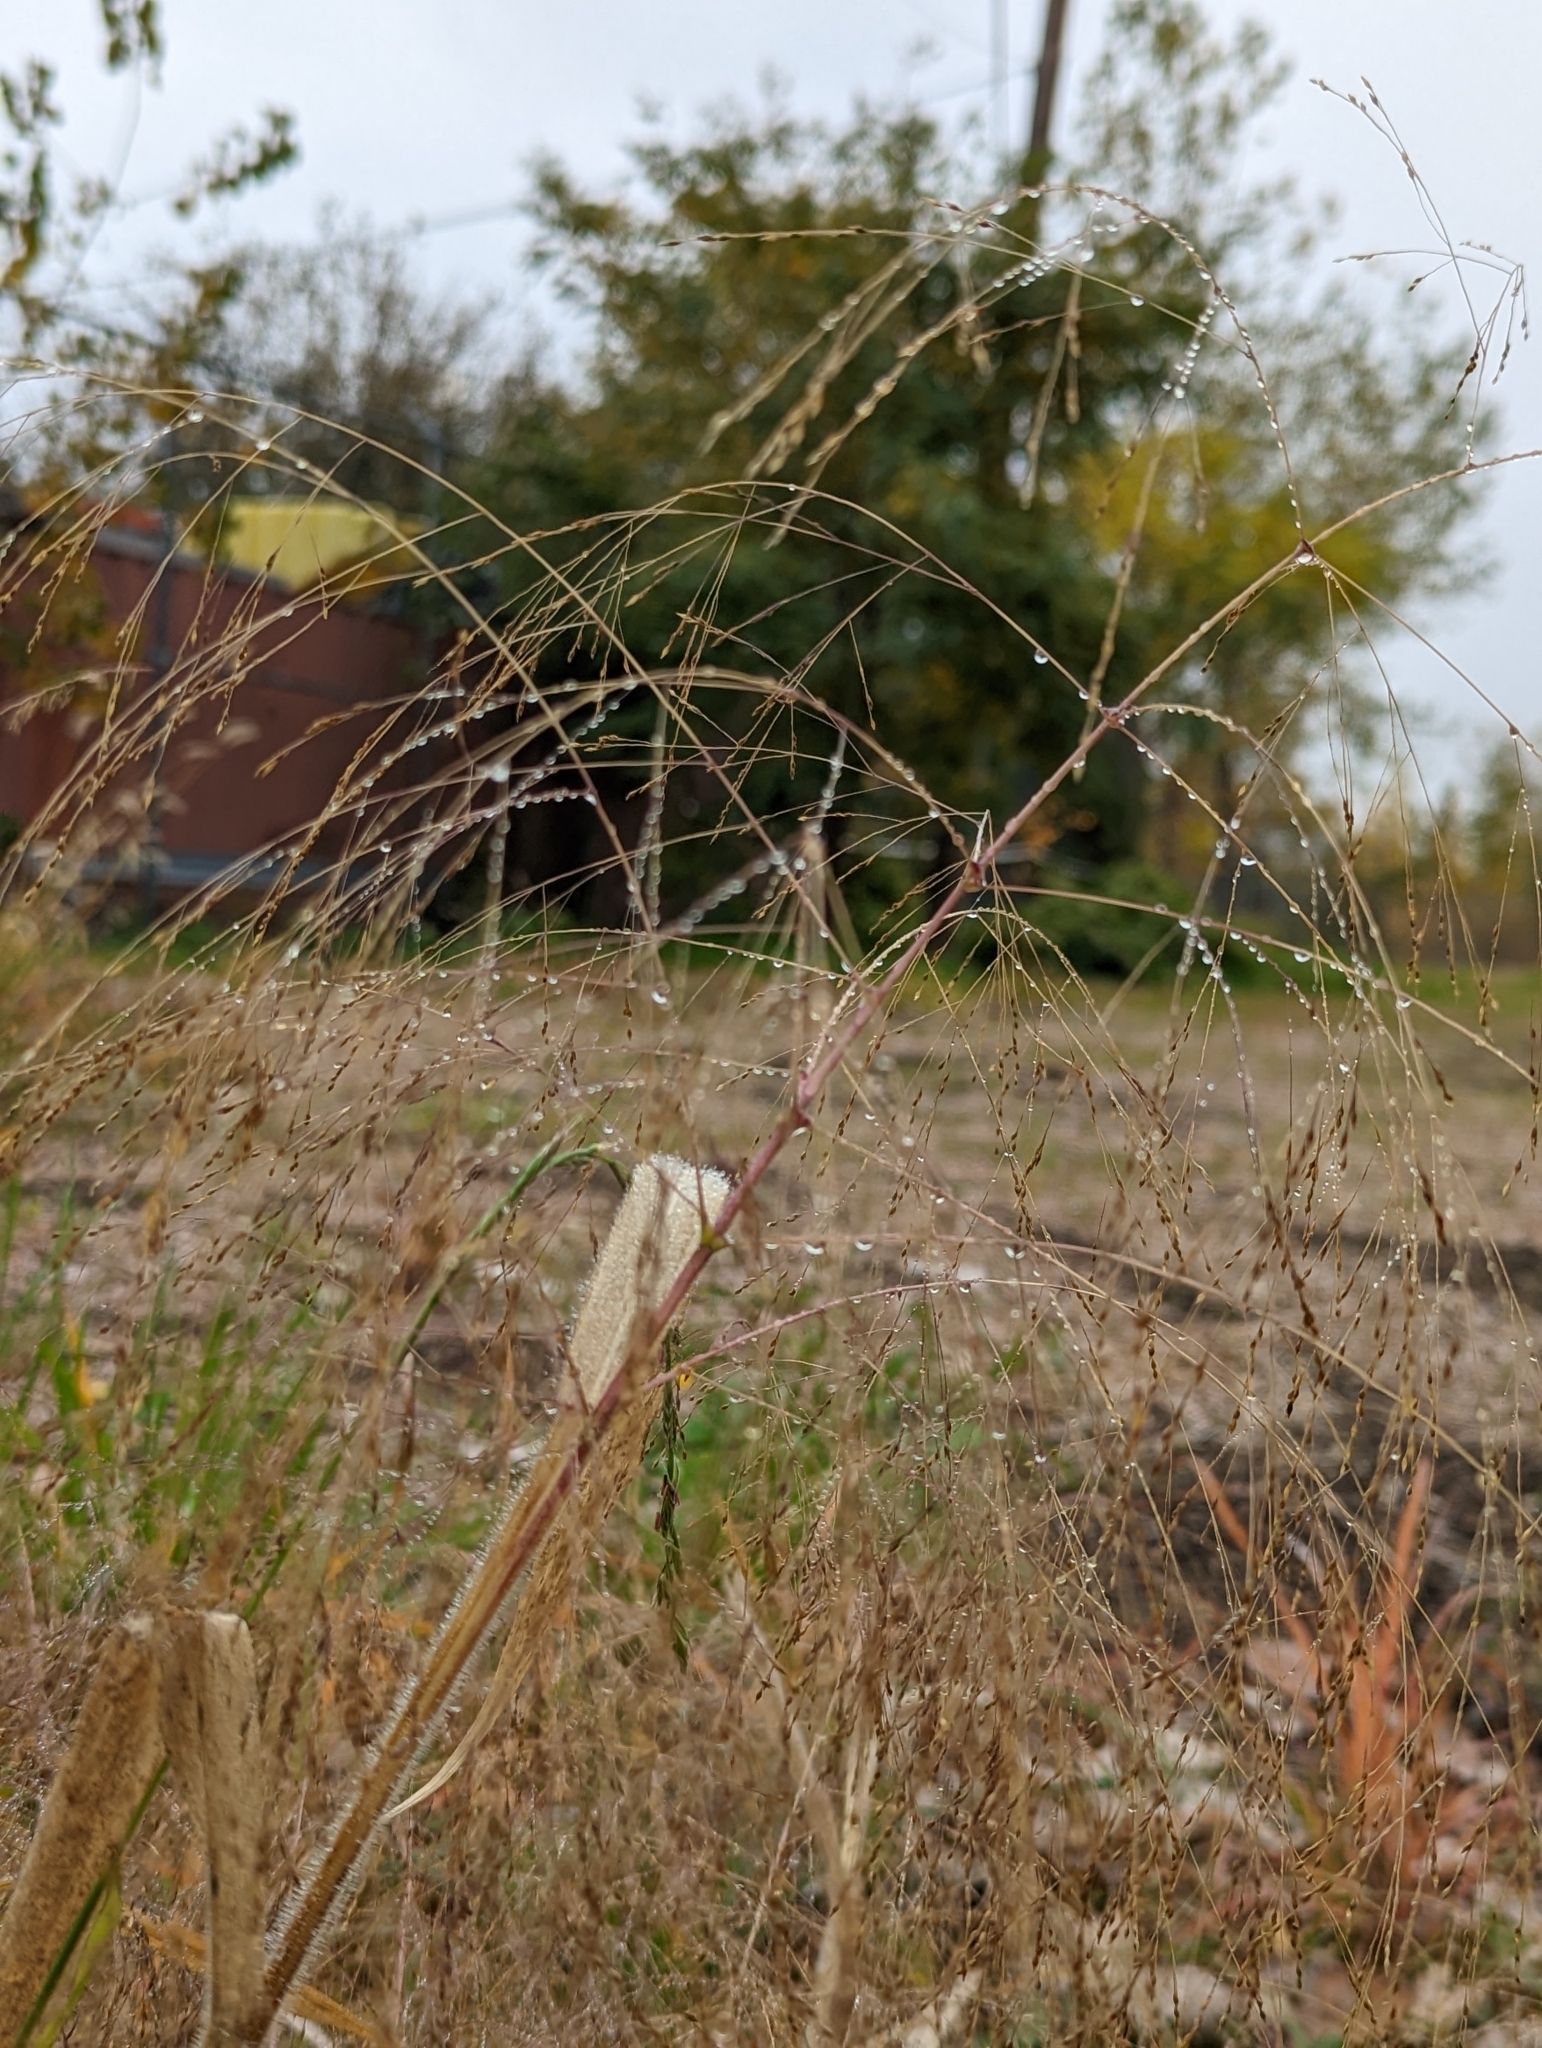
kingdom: Plantae
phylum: Tracheophyta
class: Liliopsida
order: Poales
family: Poaceae
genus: Panicum
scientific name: Panicum capillare
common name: Witch-grass
